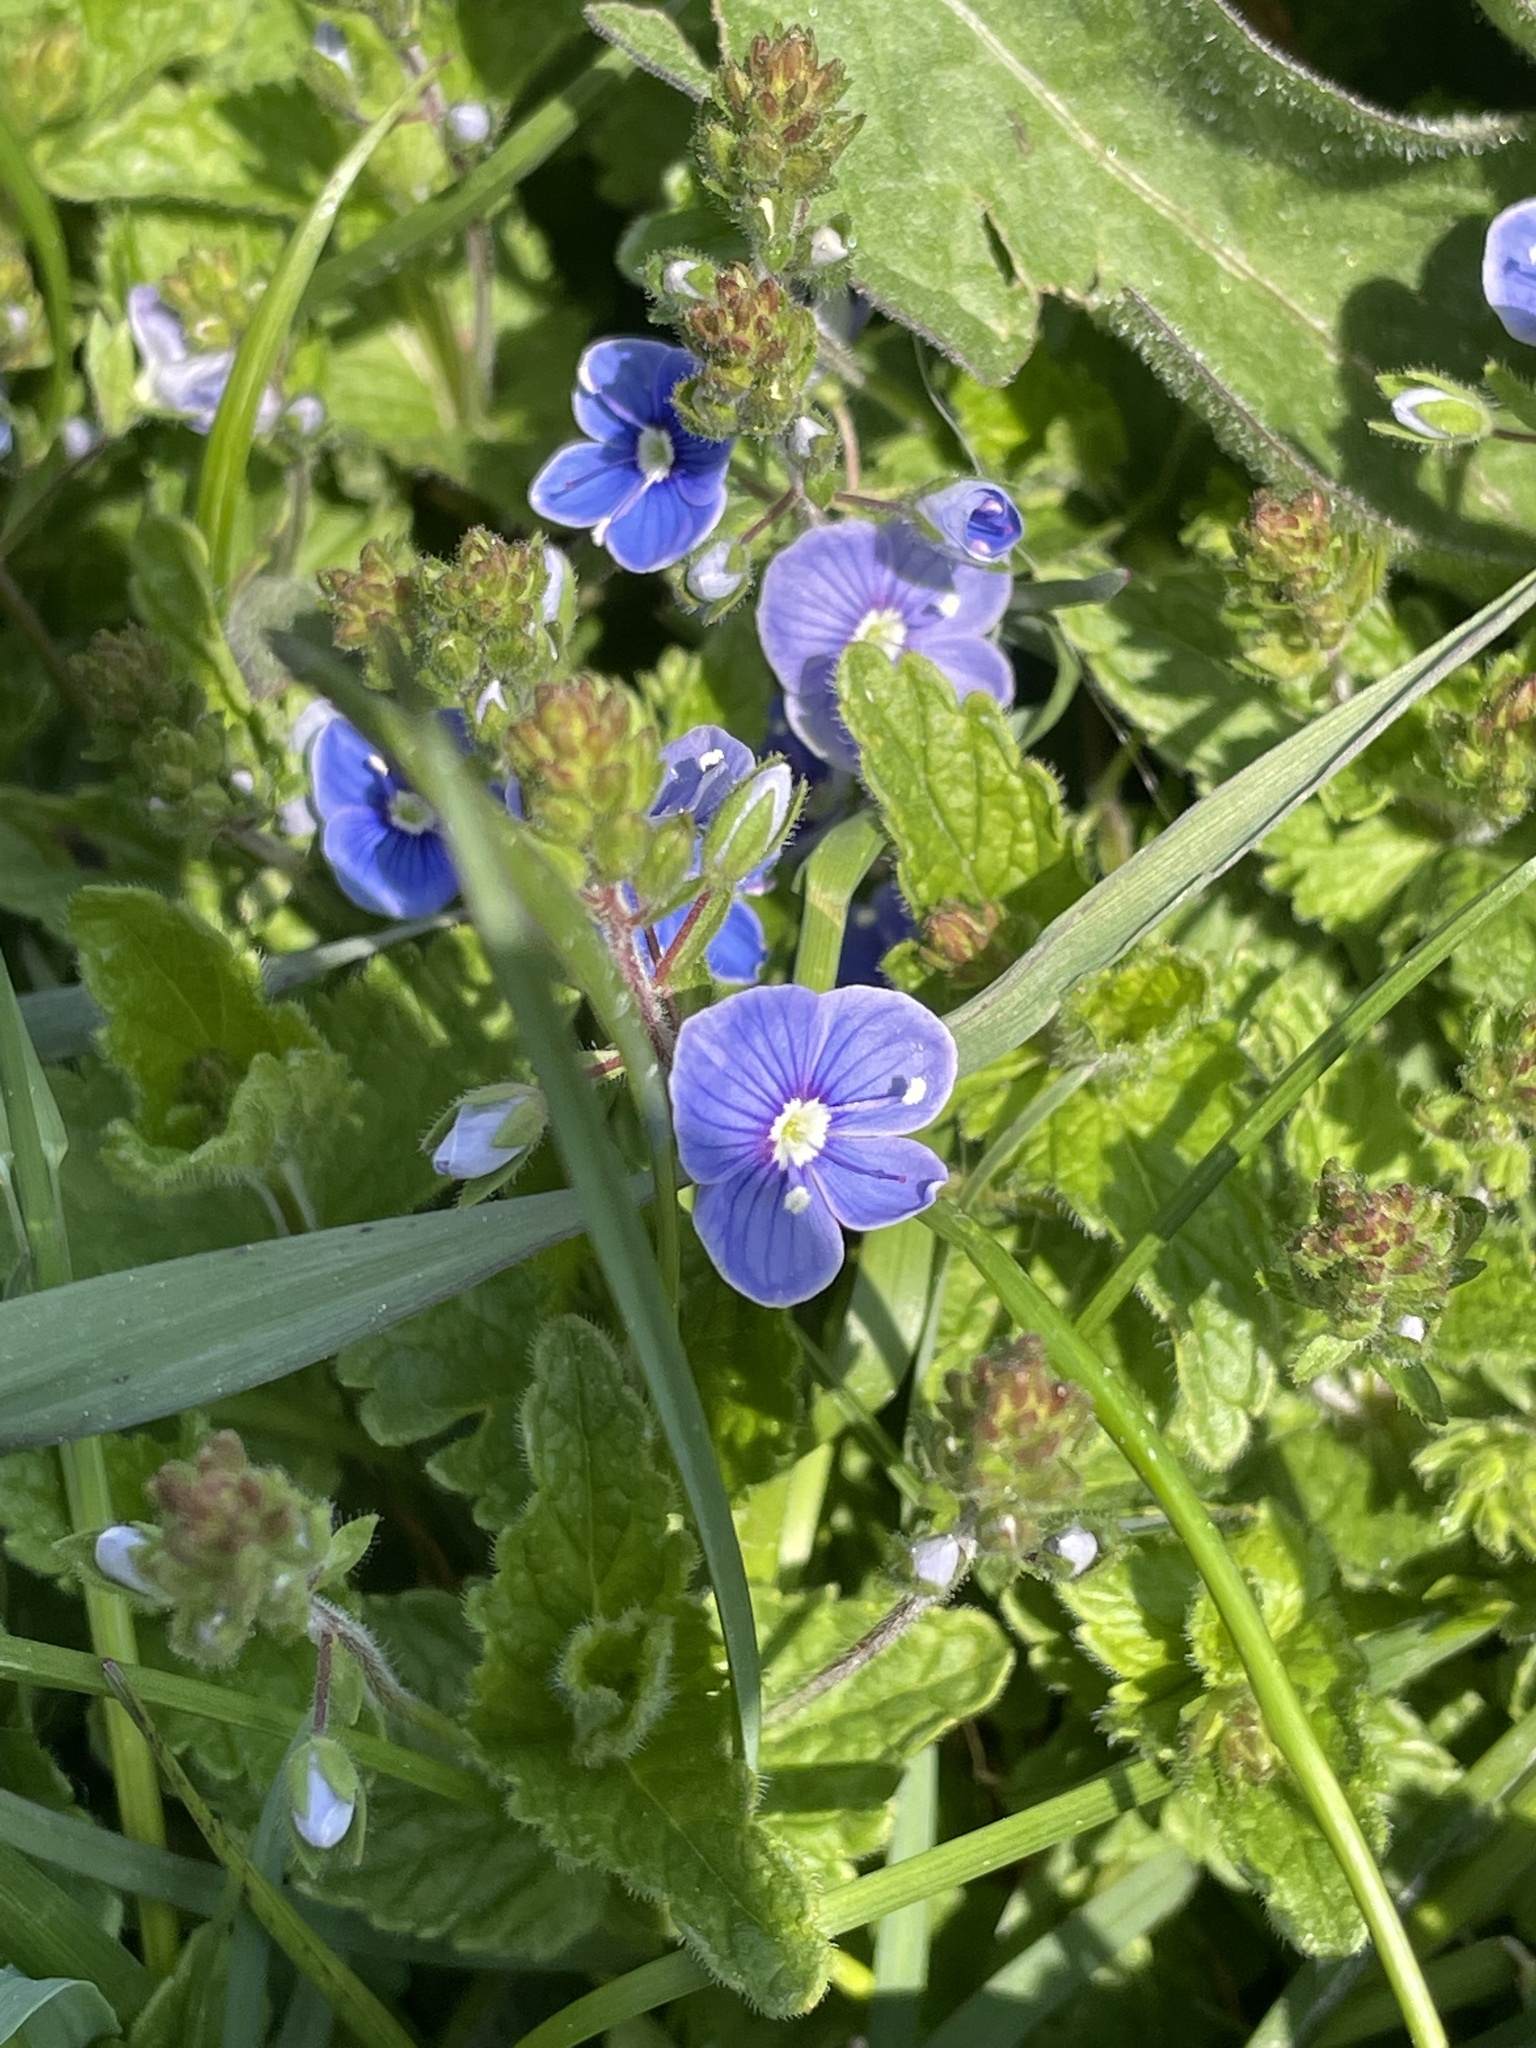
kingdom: Plantae
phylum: Tracheophyta
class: Magnoliopsida
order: Lamiales
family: Plantaginaceae
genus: Veronica
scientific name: Veronica chamaedrys
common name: Germander speedwell
